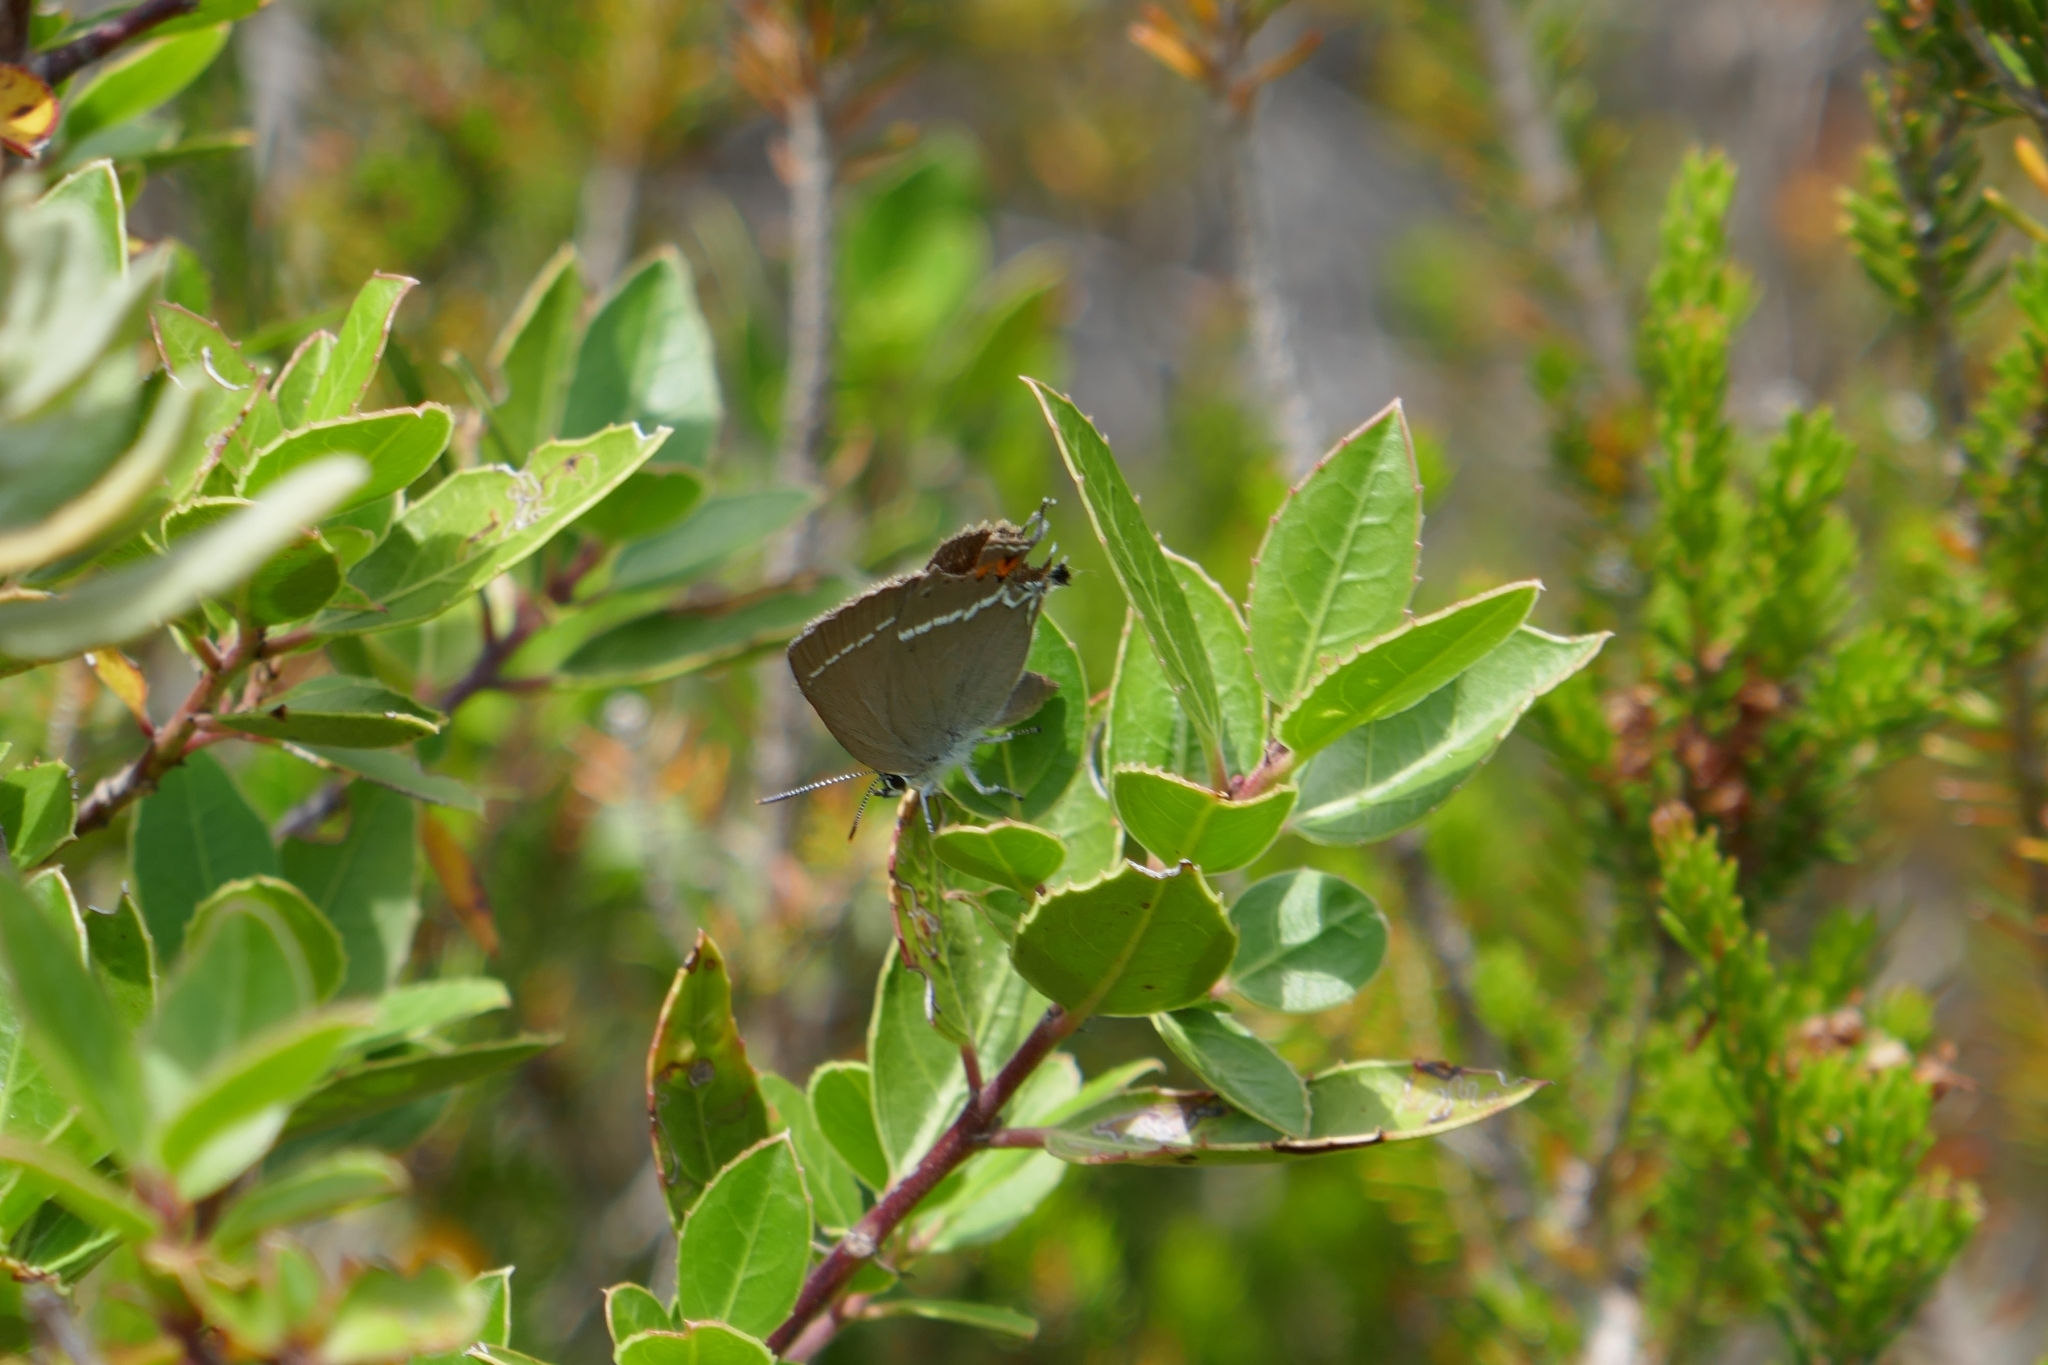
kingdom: Animalia
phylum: Arthropoda
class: Insecta
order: Lepidoptera
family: Lycaenidae
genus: Tuttiola
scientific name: Tuttiola spini
